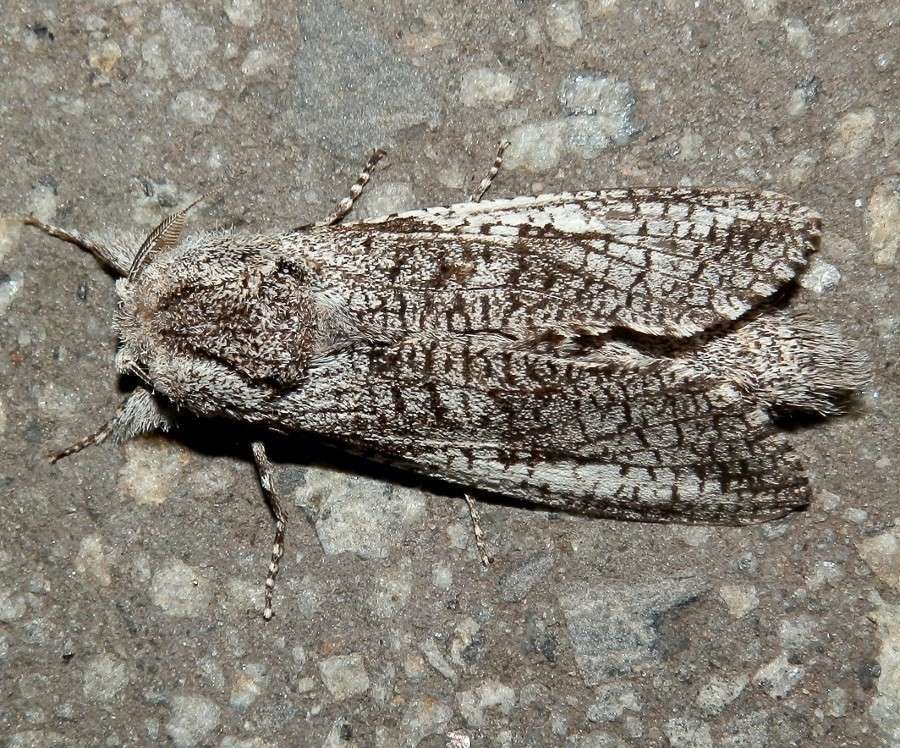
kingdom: Animalia
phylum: Arthropoda
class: Insecta
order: Lepidoptera
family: Cossidae
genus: Endoxyla
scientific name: Endoxyla secta
